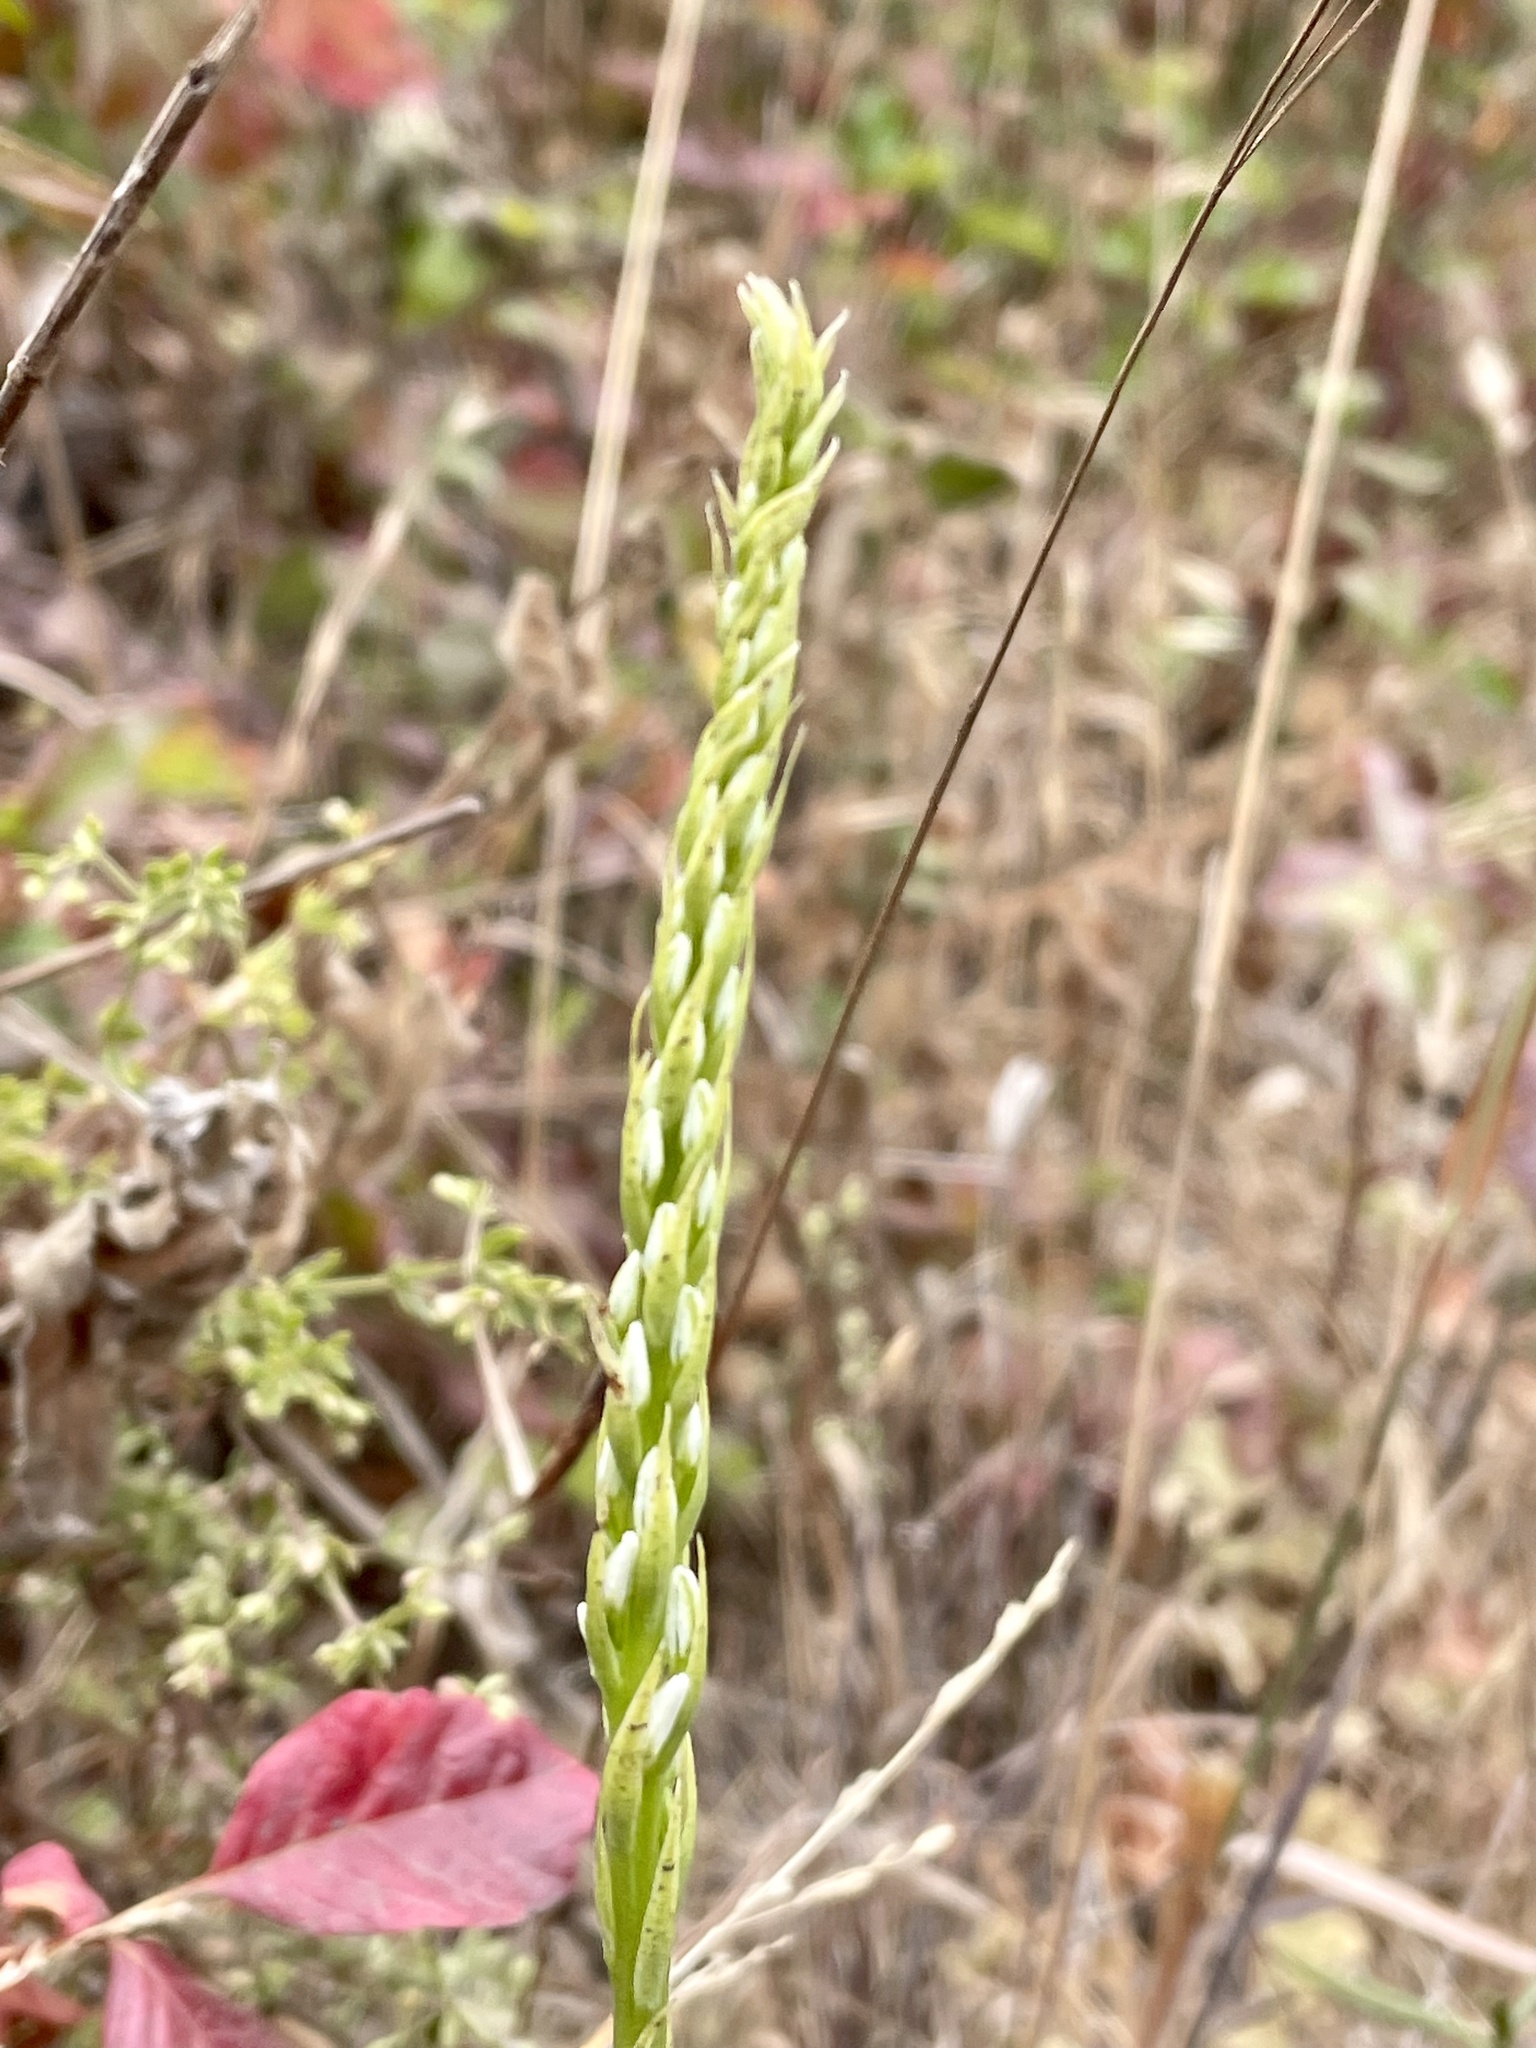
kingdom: Plantae
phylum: Tracheophyta
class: Liliopsida
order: Asparagales
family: Orchidaceae
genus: Platanthera
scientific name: Platanthera elegans
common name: Coast piperia
